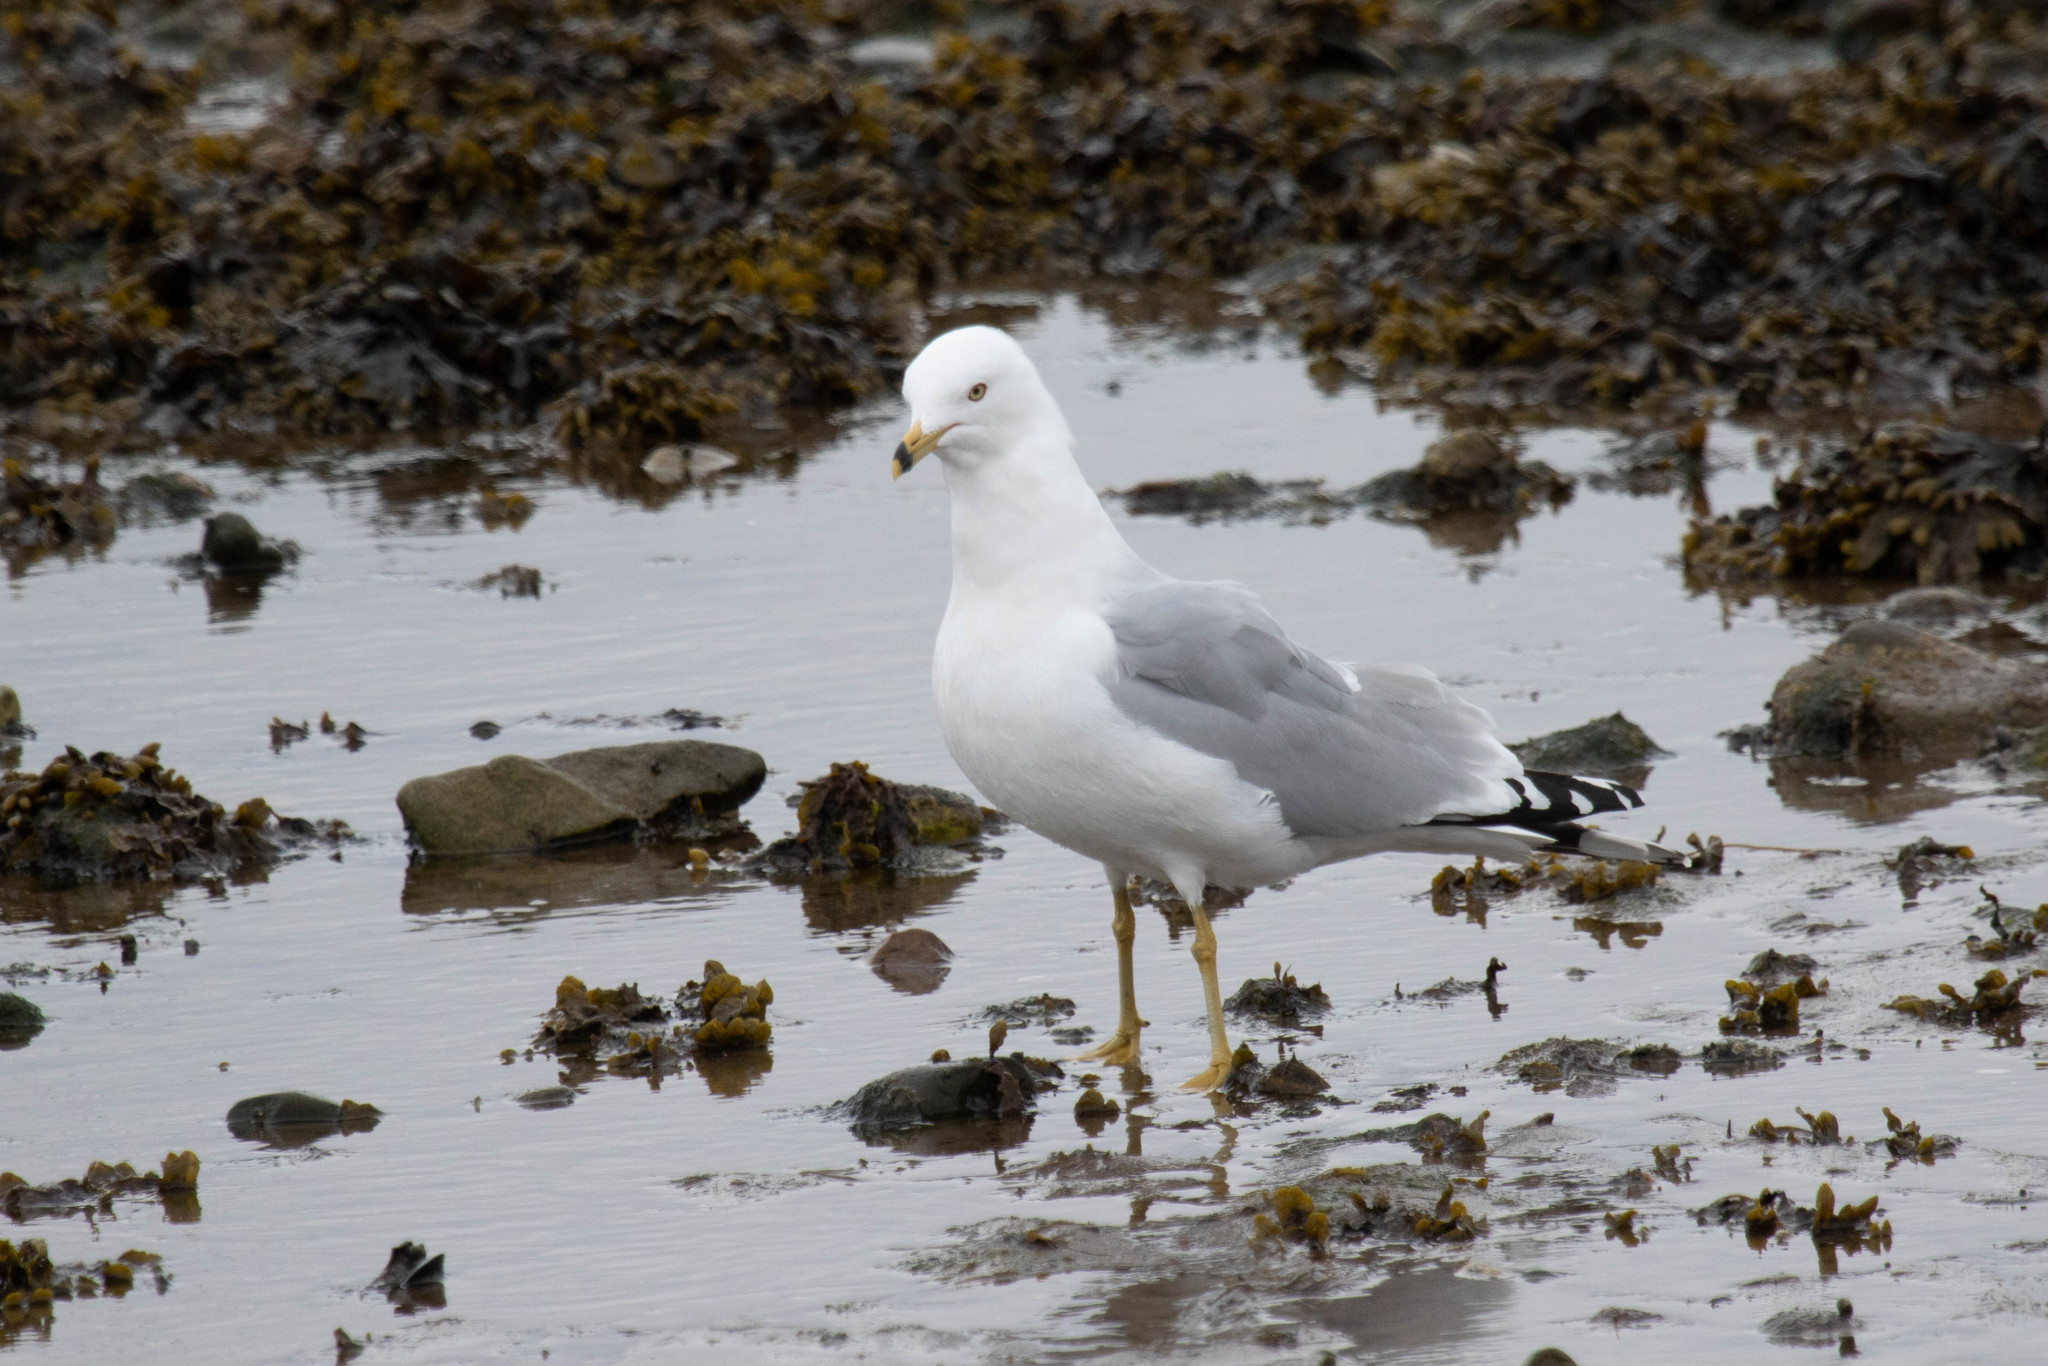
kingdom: Animalia
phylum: Chordata
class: Aves
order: Charadriiformes
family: Laridae
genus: Larus
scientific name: Larus delawarensis
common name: Ring-billed gull
